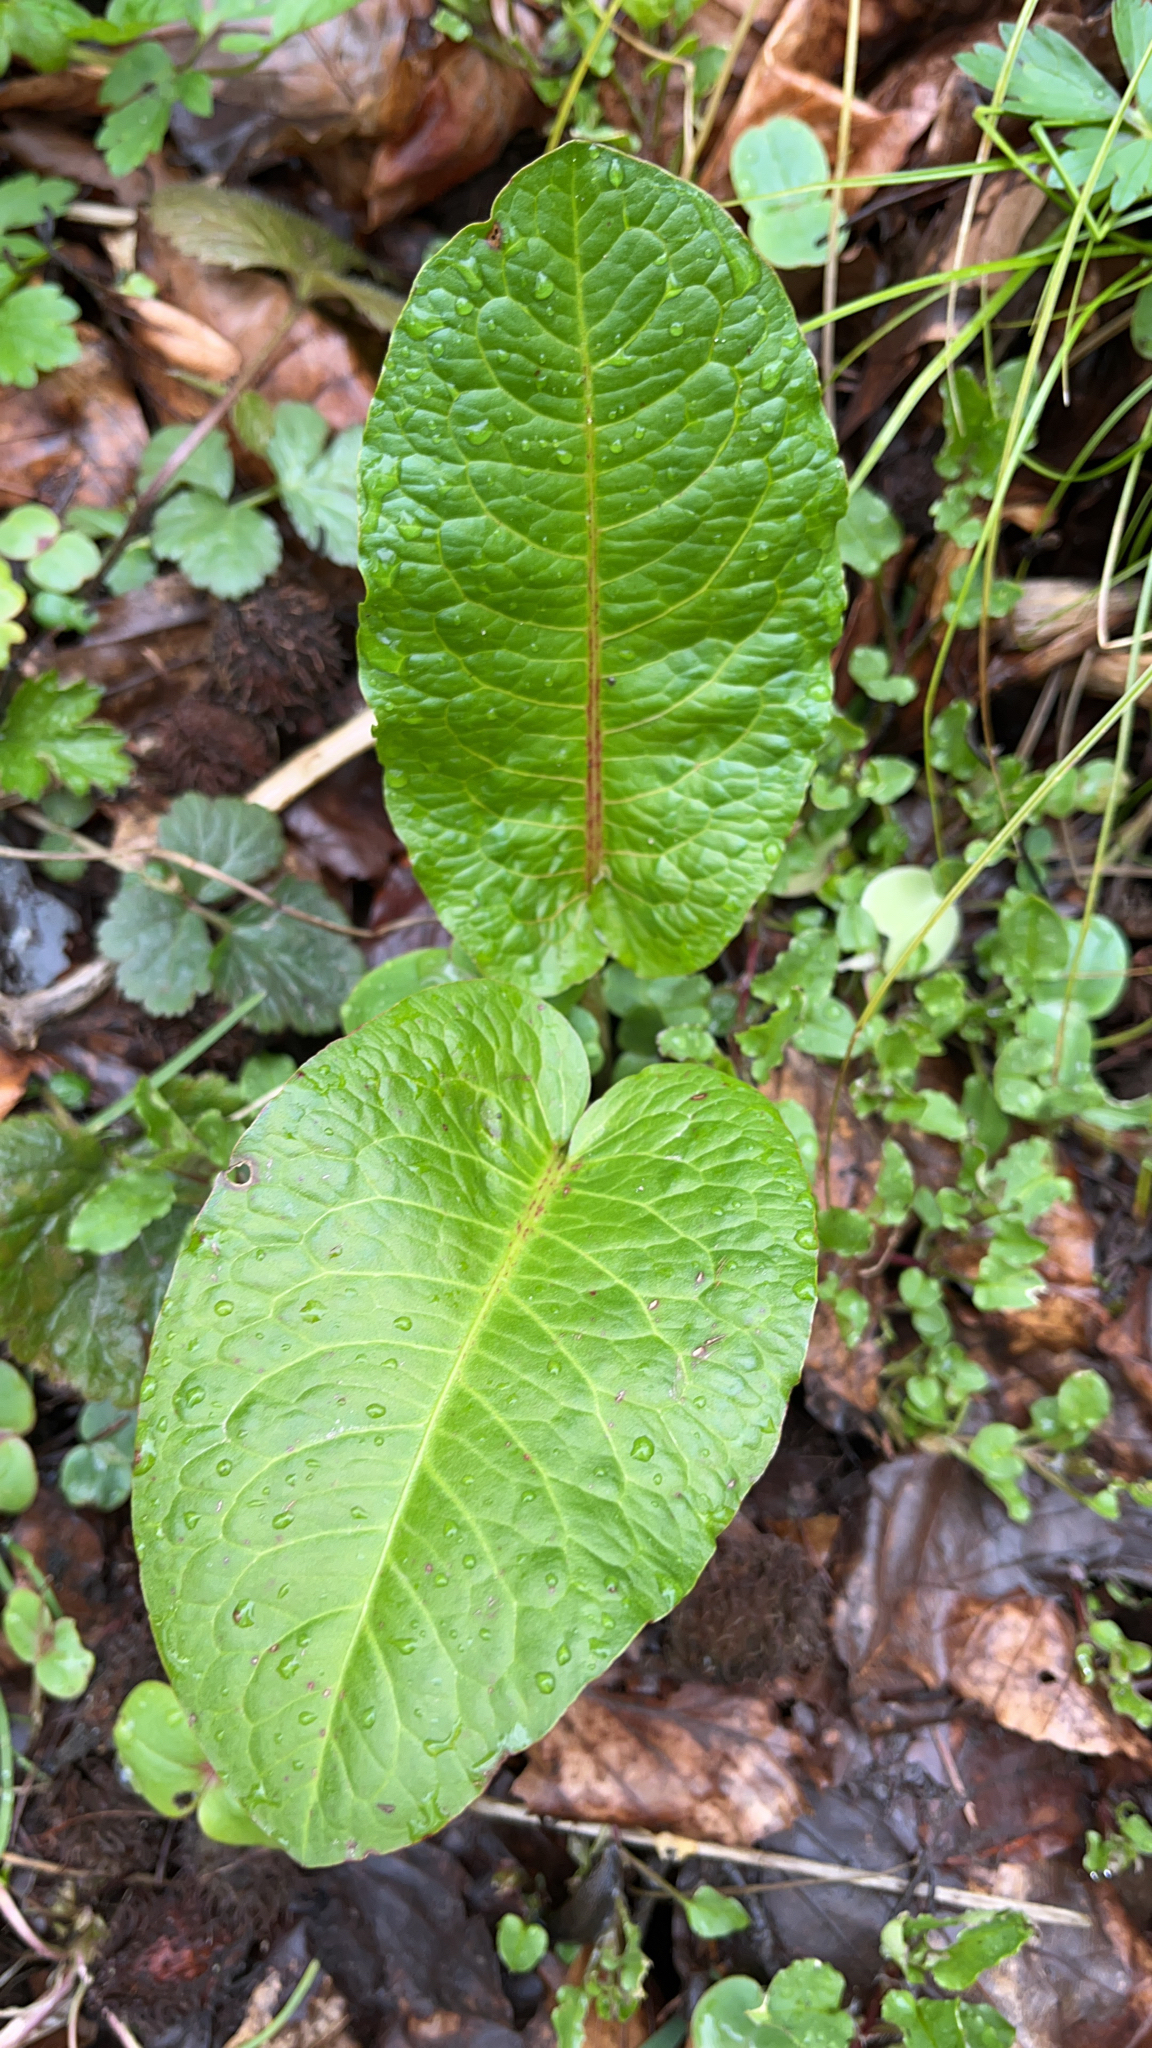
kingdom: Plantae
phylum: Tracheophyta
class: Magnoliopsida
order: Caryophyllales
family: Polygonaceae
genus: Rumex
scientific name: Rumex obtusifolius
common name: Bitter dock
